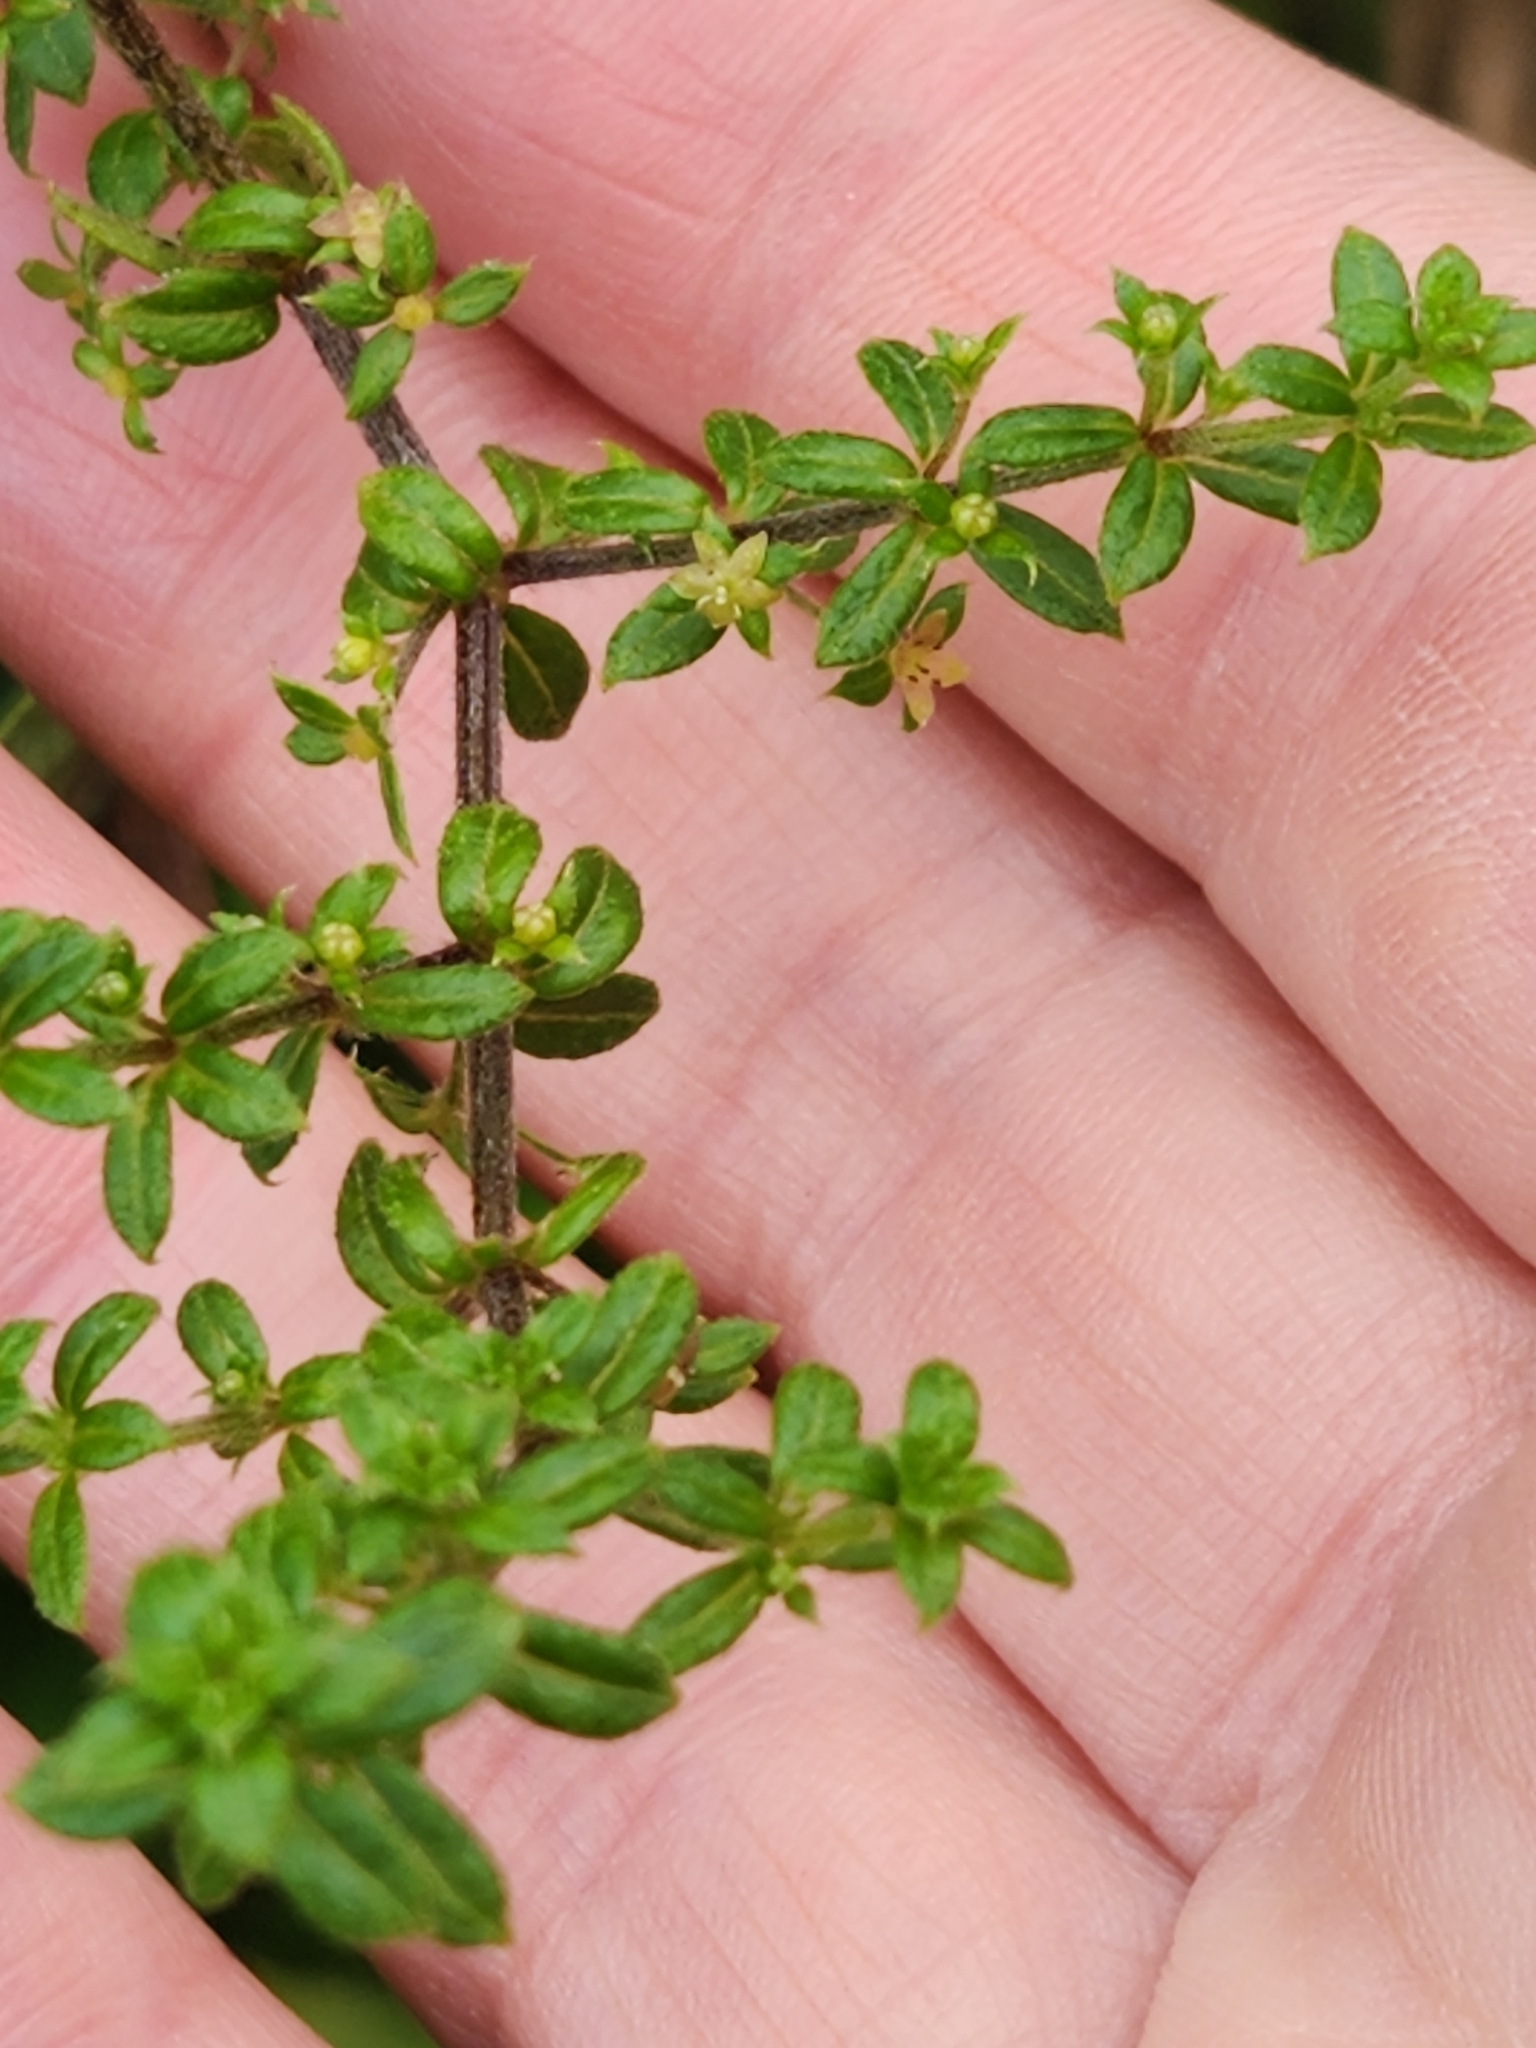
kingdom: Plantae
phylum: Tracheophyta
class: Magnoliopsida
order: Gentianales
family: Rubiaceae
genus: Galium
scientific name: Galium hypocarpium
